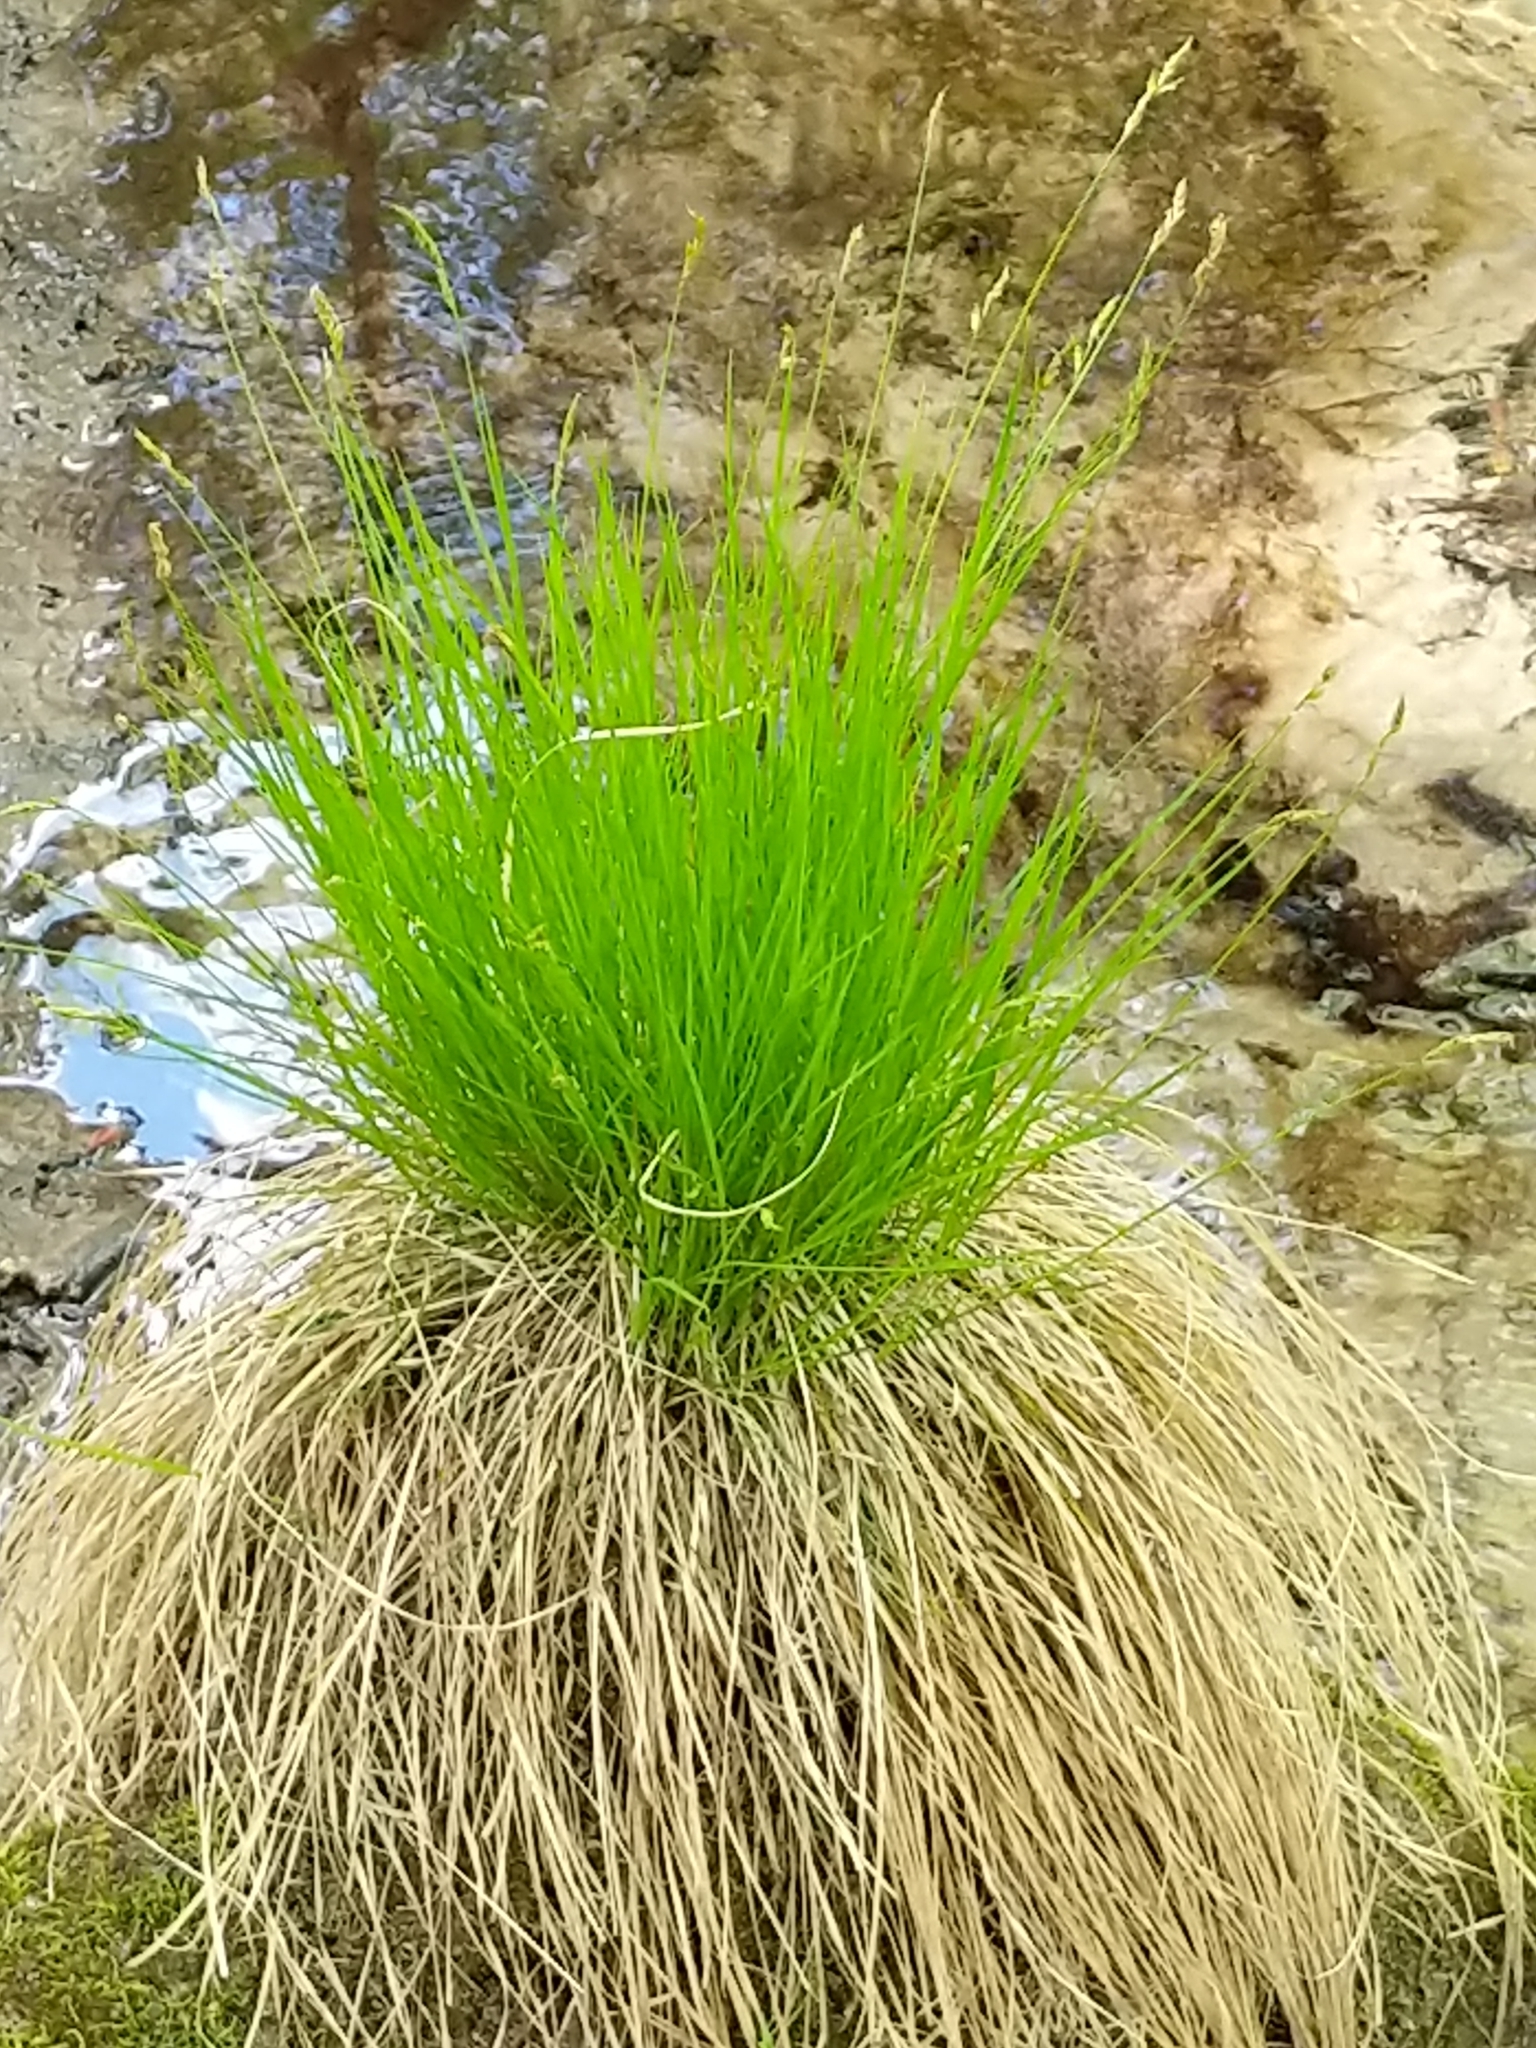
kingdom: Plantae
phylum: Tracheophyta
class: Liliopsida
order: Poales
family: Cyperaceae
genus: Carex
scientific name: Carex stricta
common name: Hummock sedge
